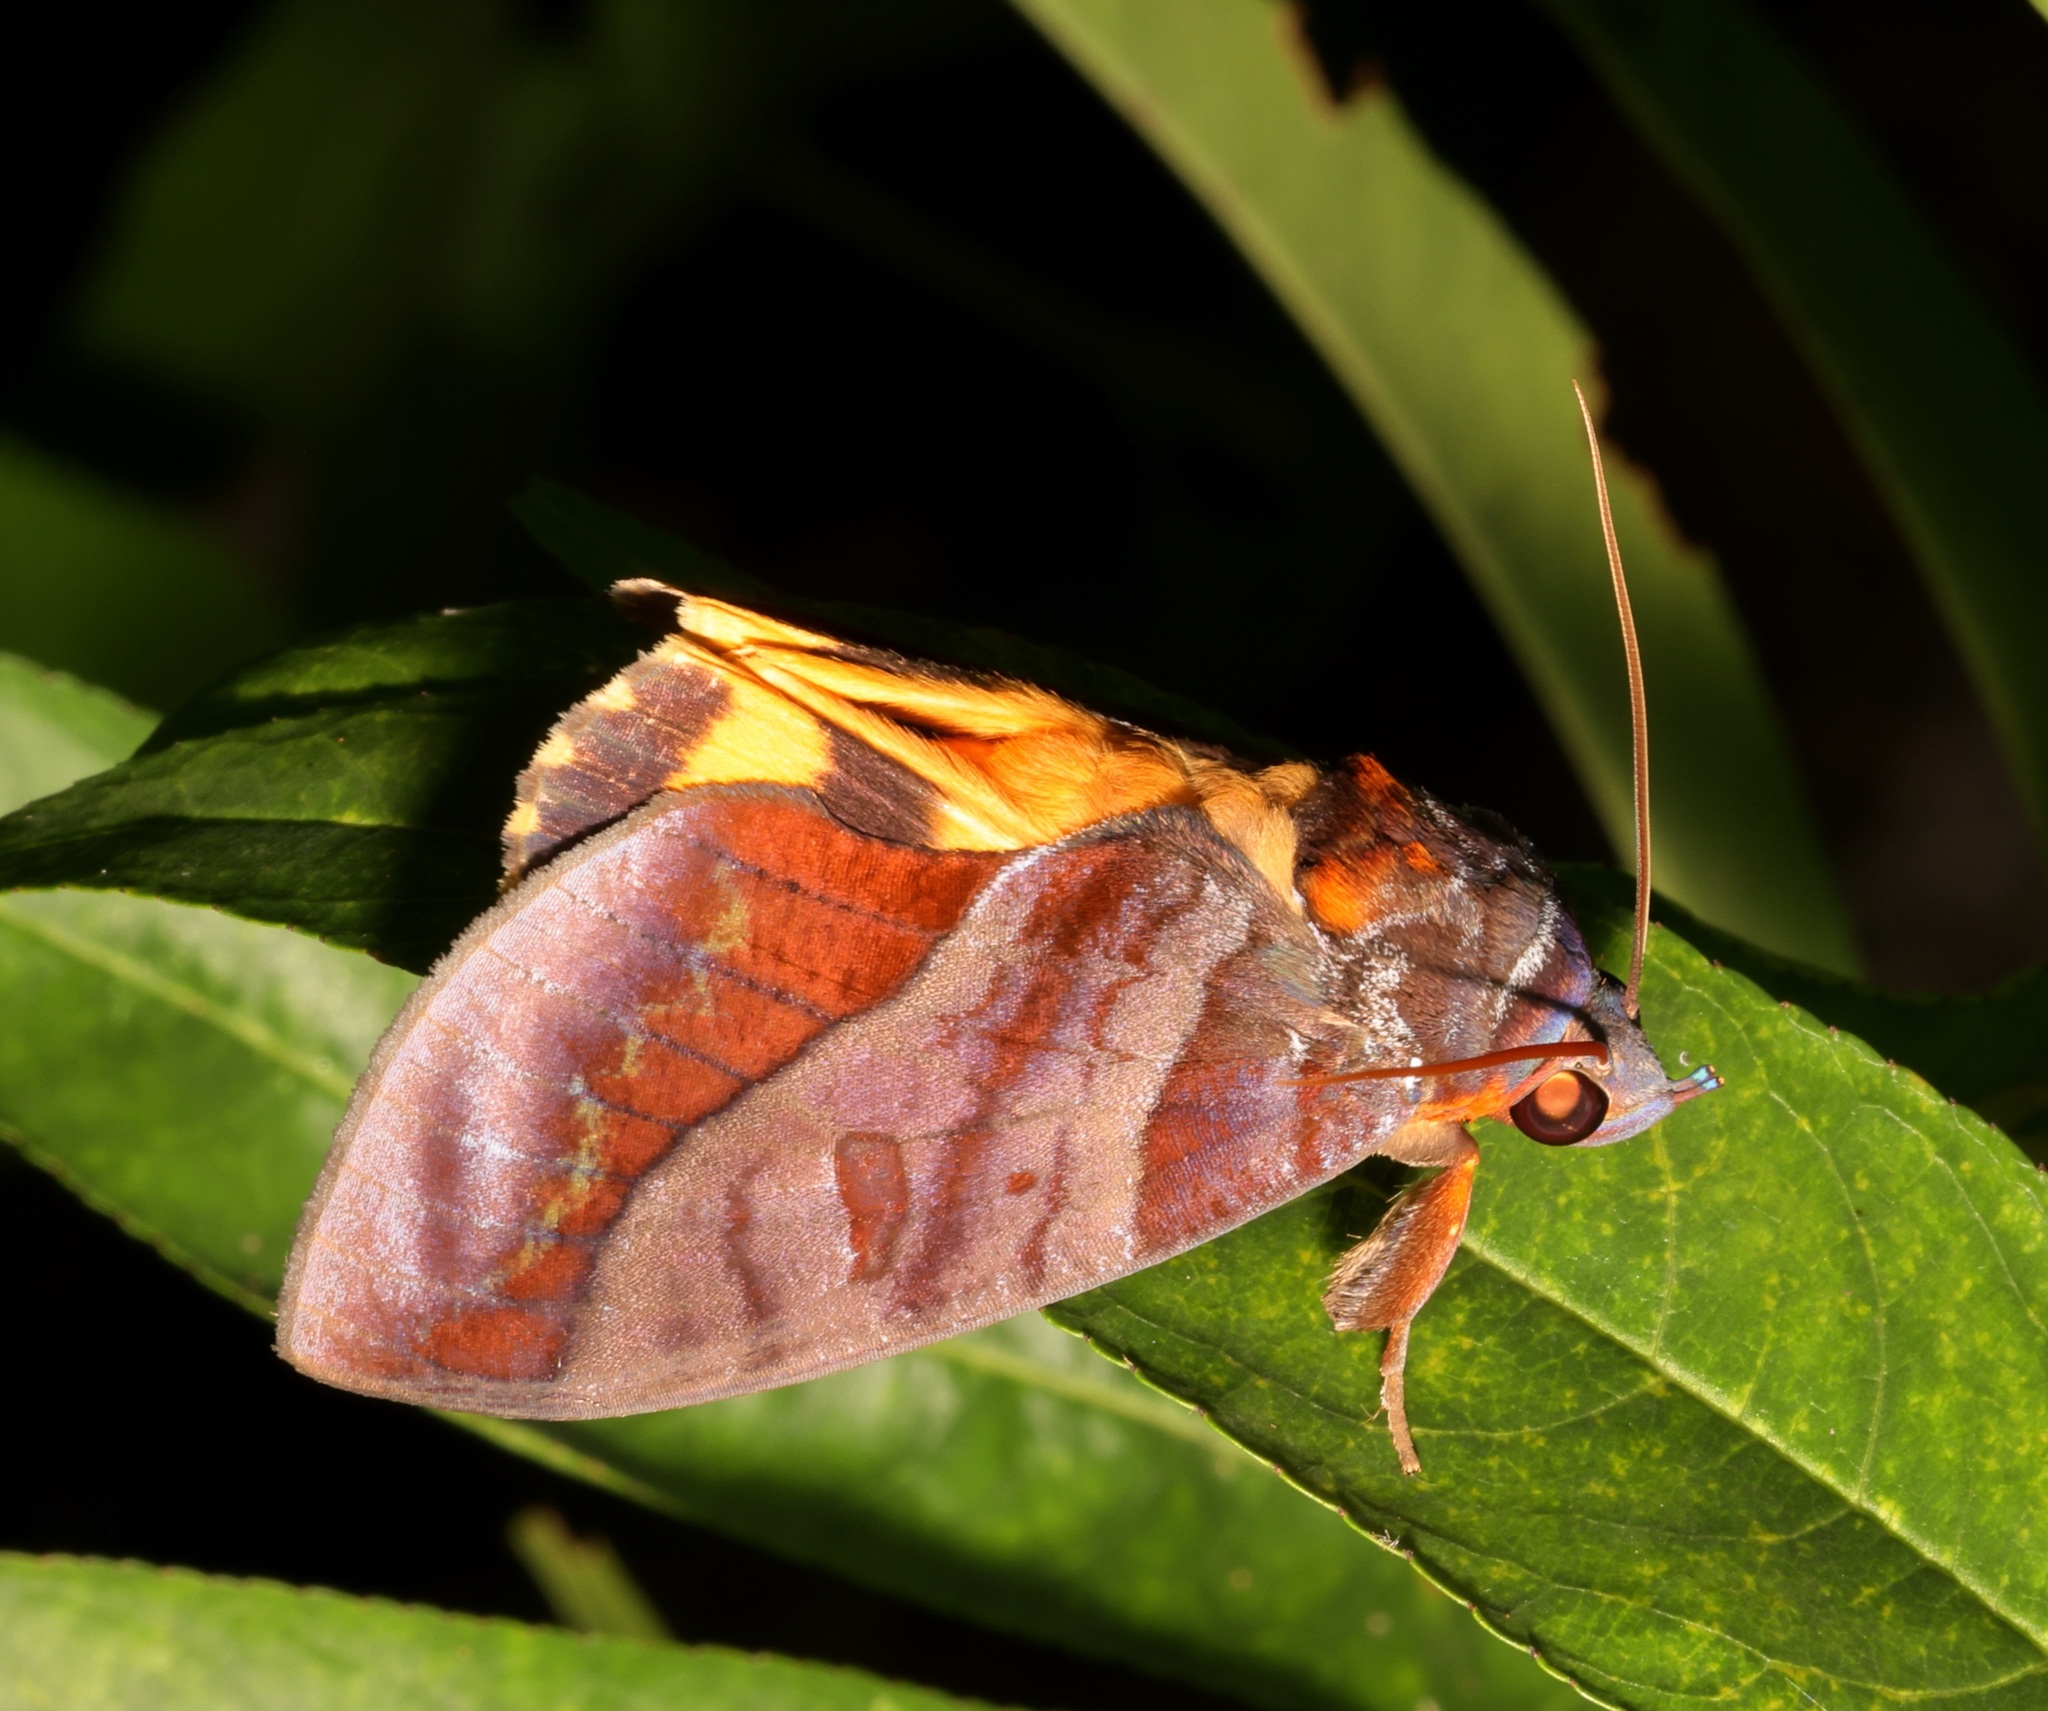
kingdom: Animalia
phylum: Arthropoda
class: Insecta
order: Lepidoptera
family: Erebidae
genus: Eudocima
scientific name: Eudocima homaena
